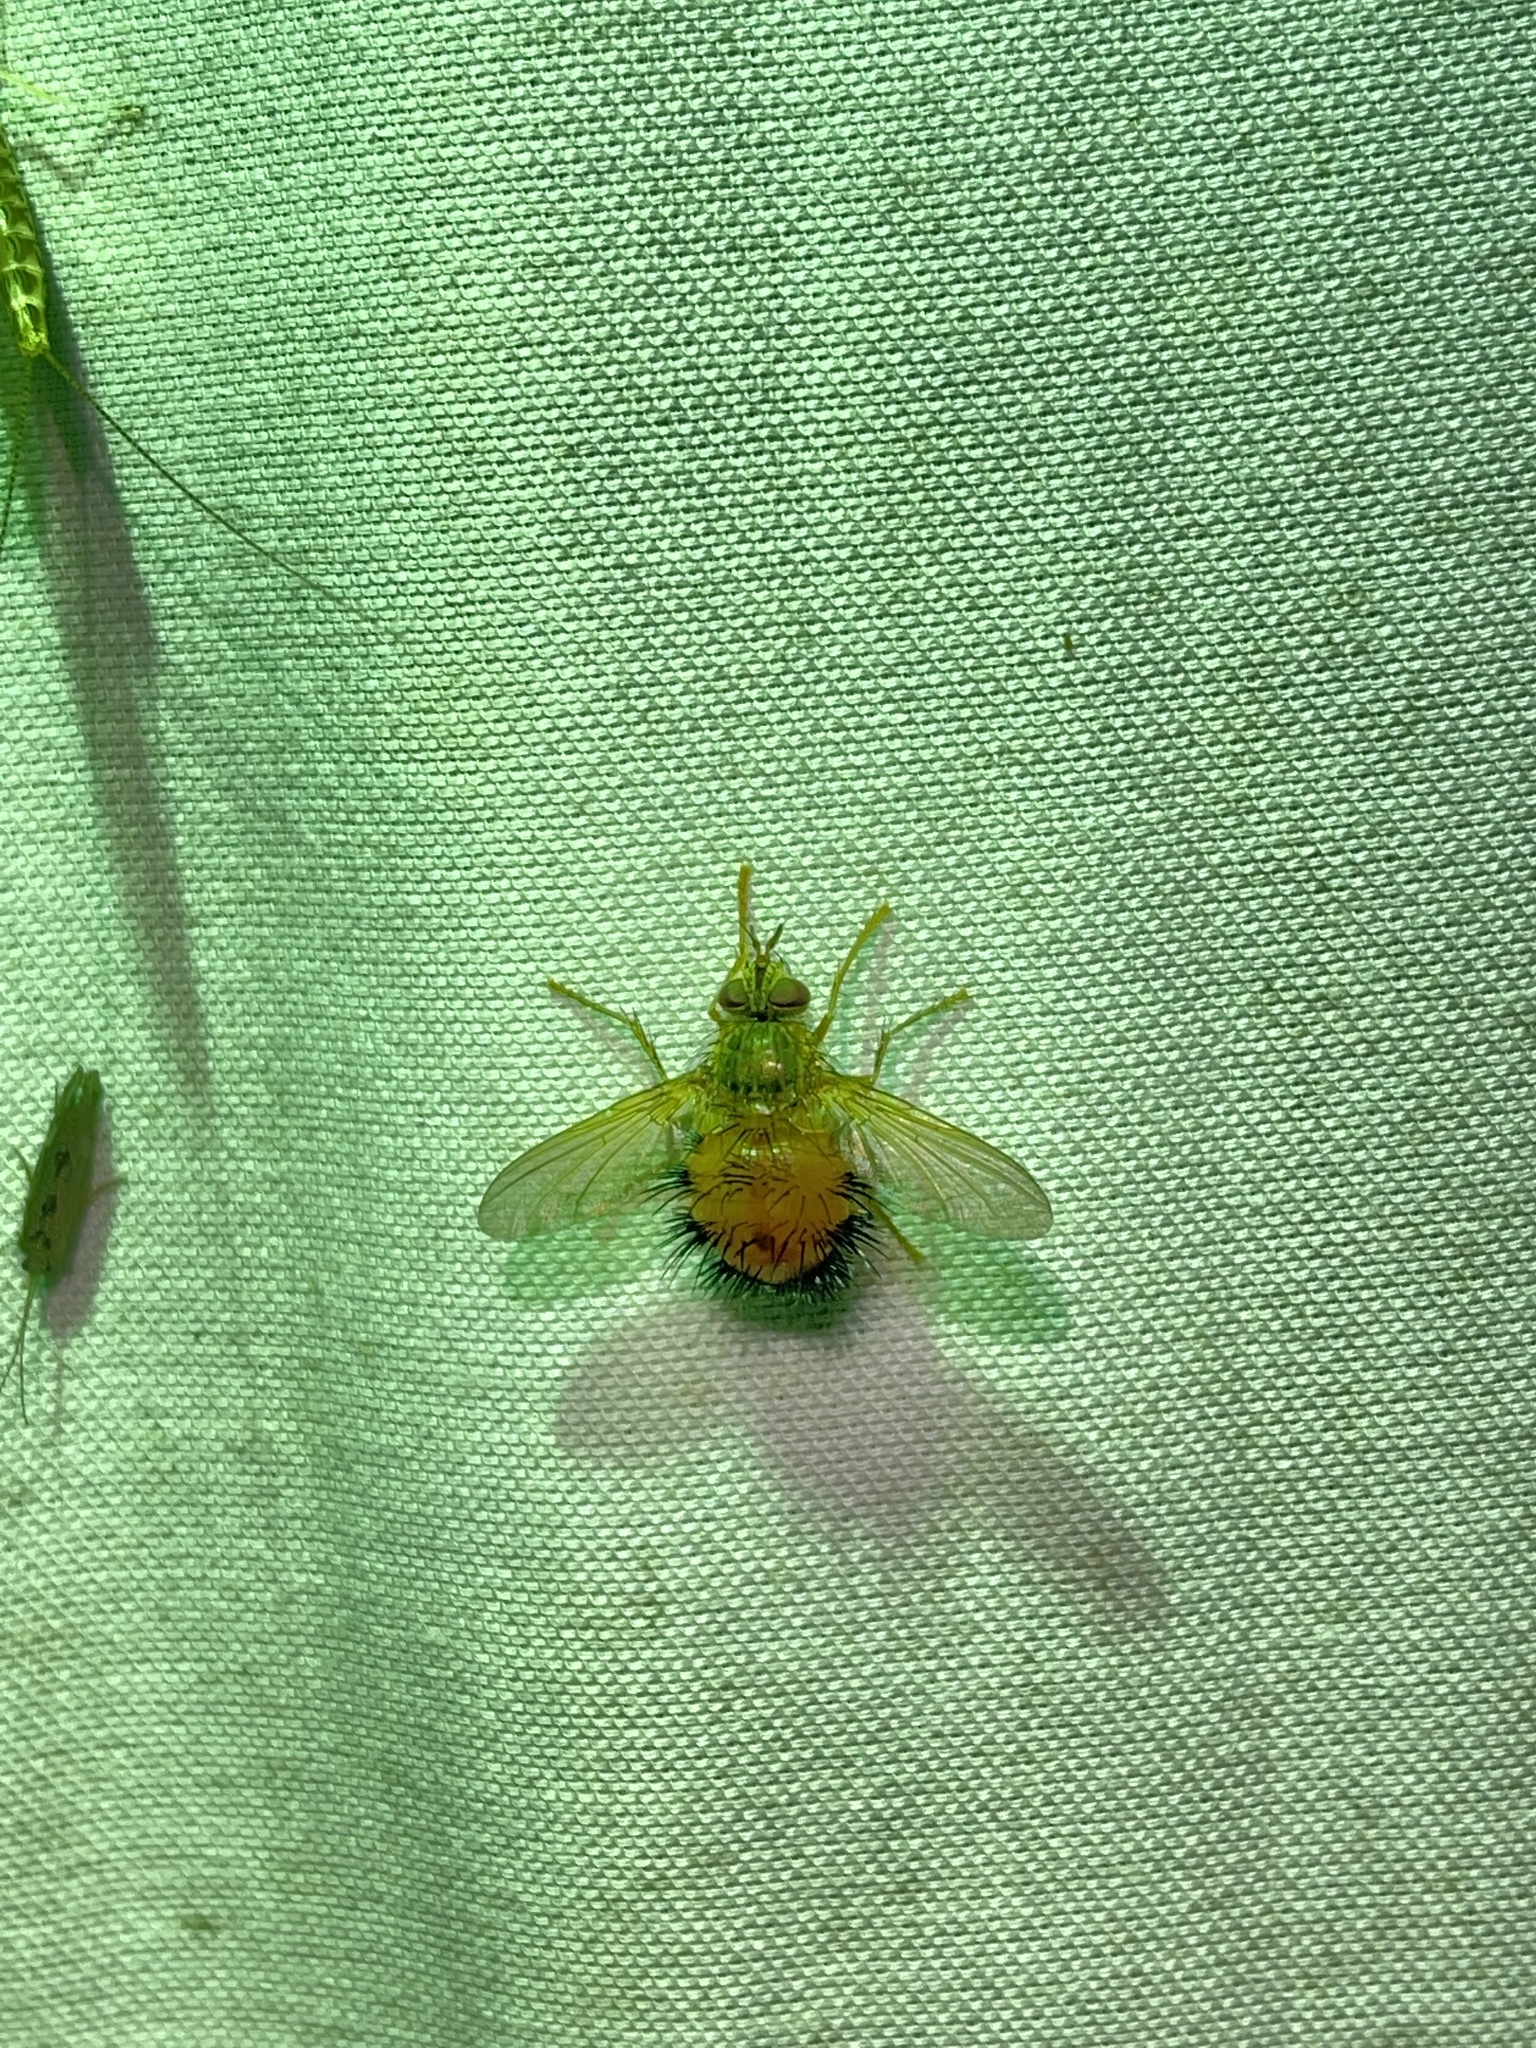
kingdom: Animalia
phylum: Arthropoda
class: Insecta
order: Diptera
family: Tachinidae
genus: Hystricia
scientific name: Hystricia abrupta
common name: Tomato bristle fly
